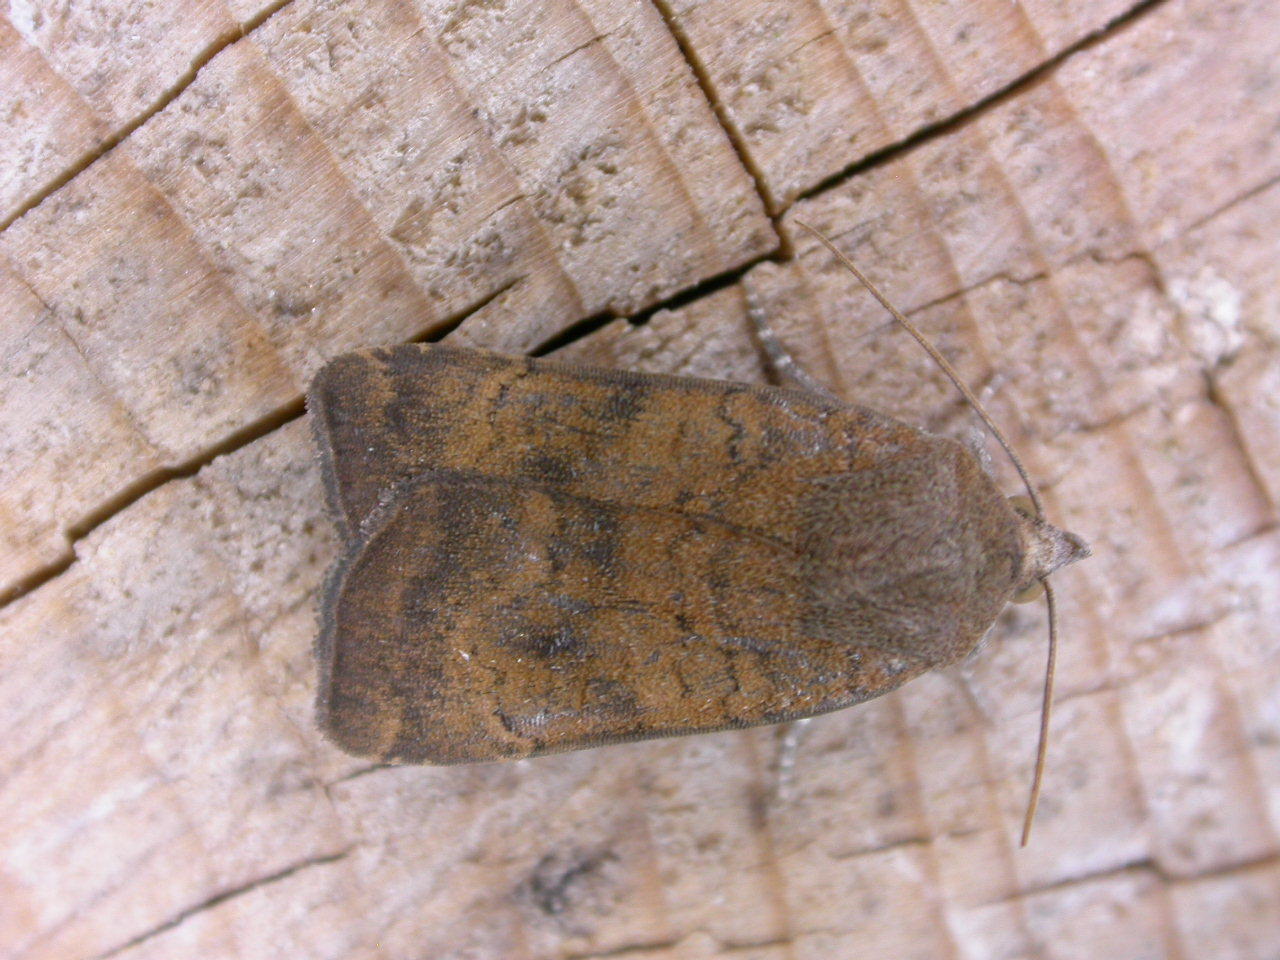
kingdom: Animalia
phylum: Arthropoda
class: Insecta
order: Lepidoptera
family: Noctuidae
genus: Noctua
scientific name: Noctua interjecta
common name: Least yellow underwing
